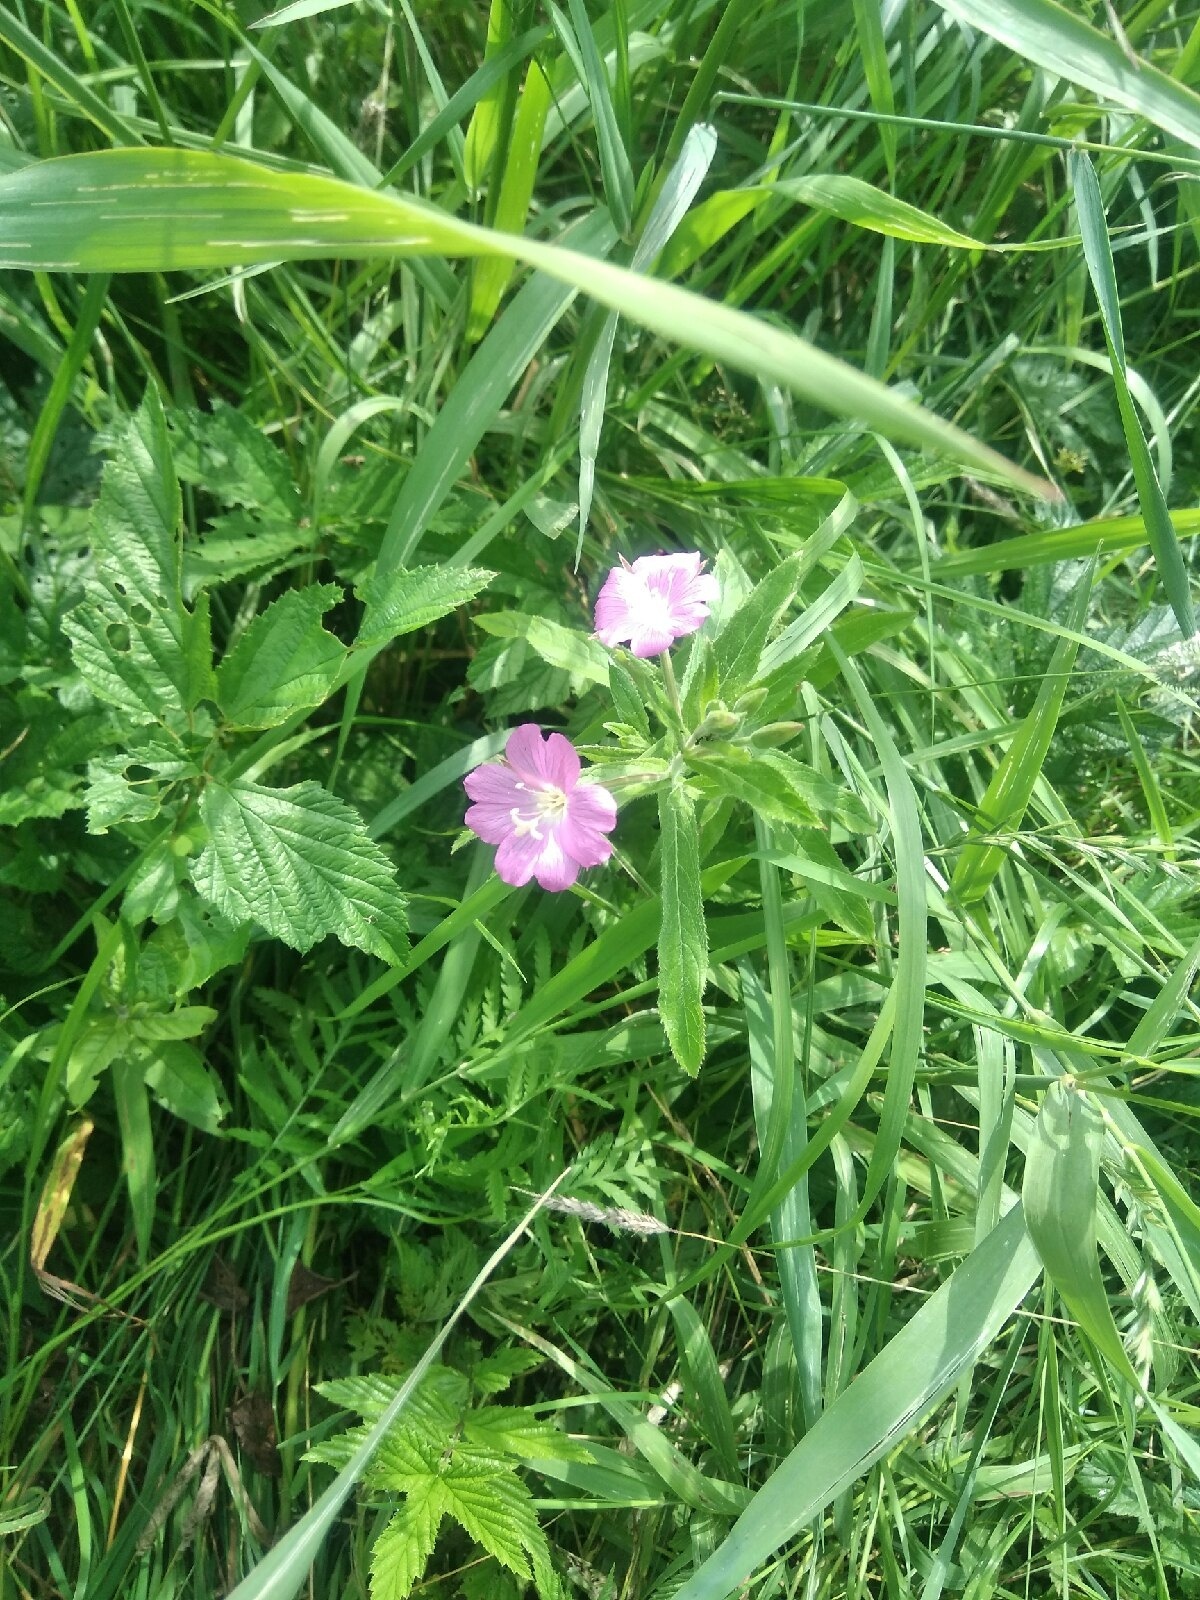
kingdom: Plantae
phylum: Tracheophyta
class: Magnoliopsida
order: Myrtales
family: Onagraceae
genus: Epilobium
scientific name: Epilobium hirsutum
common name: Great willowherb
